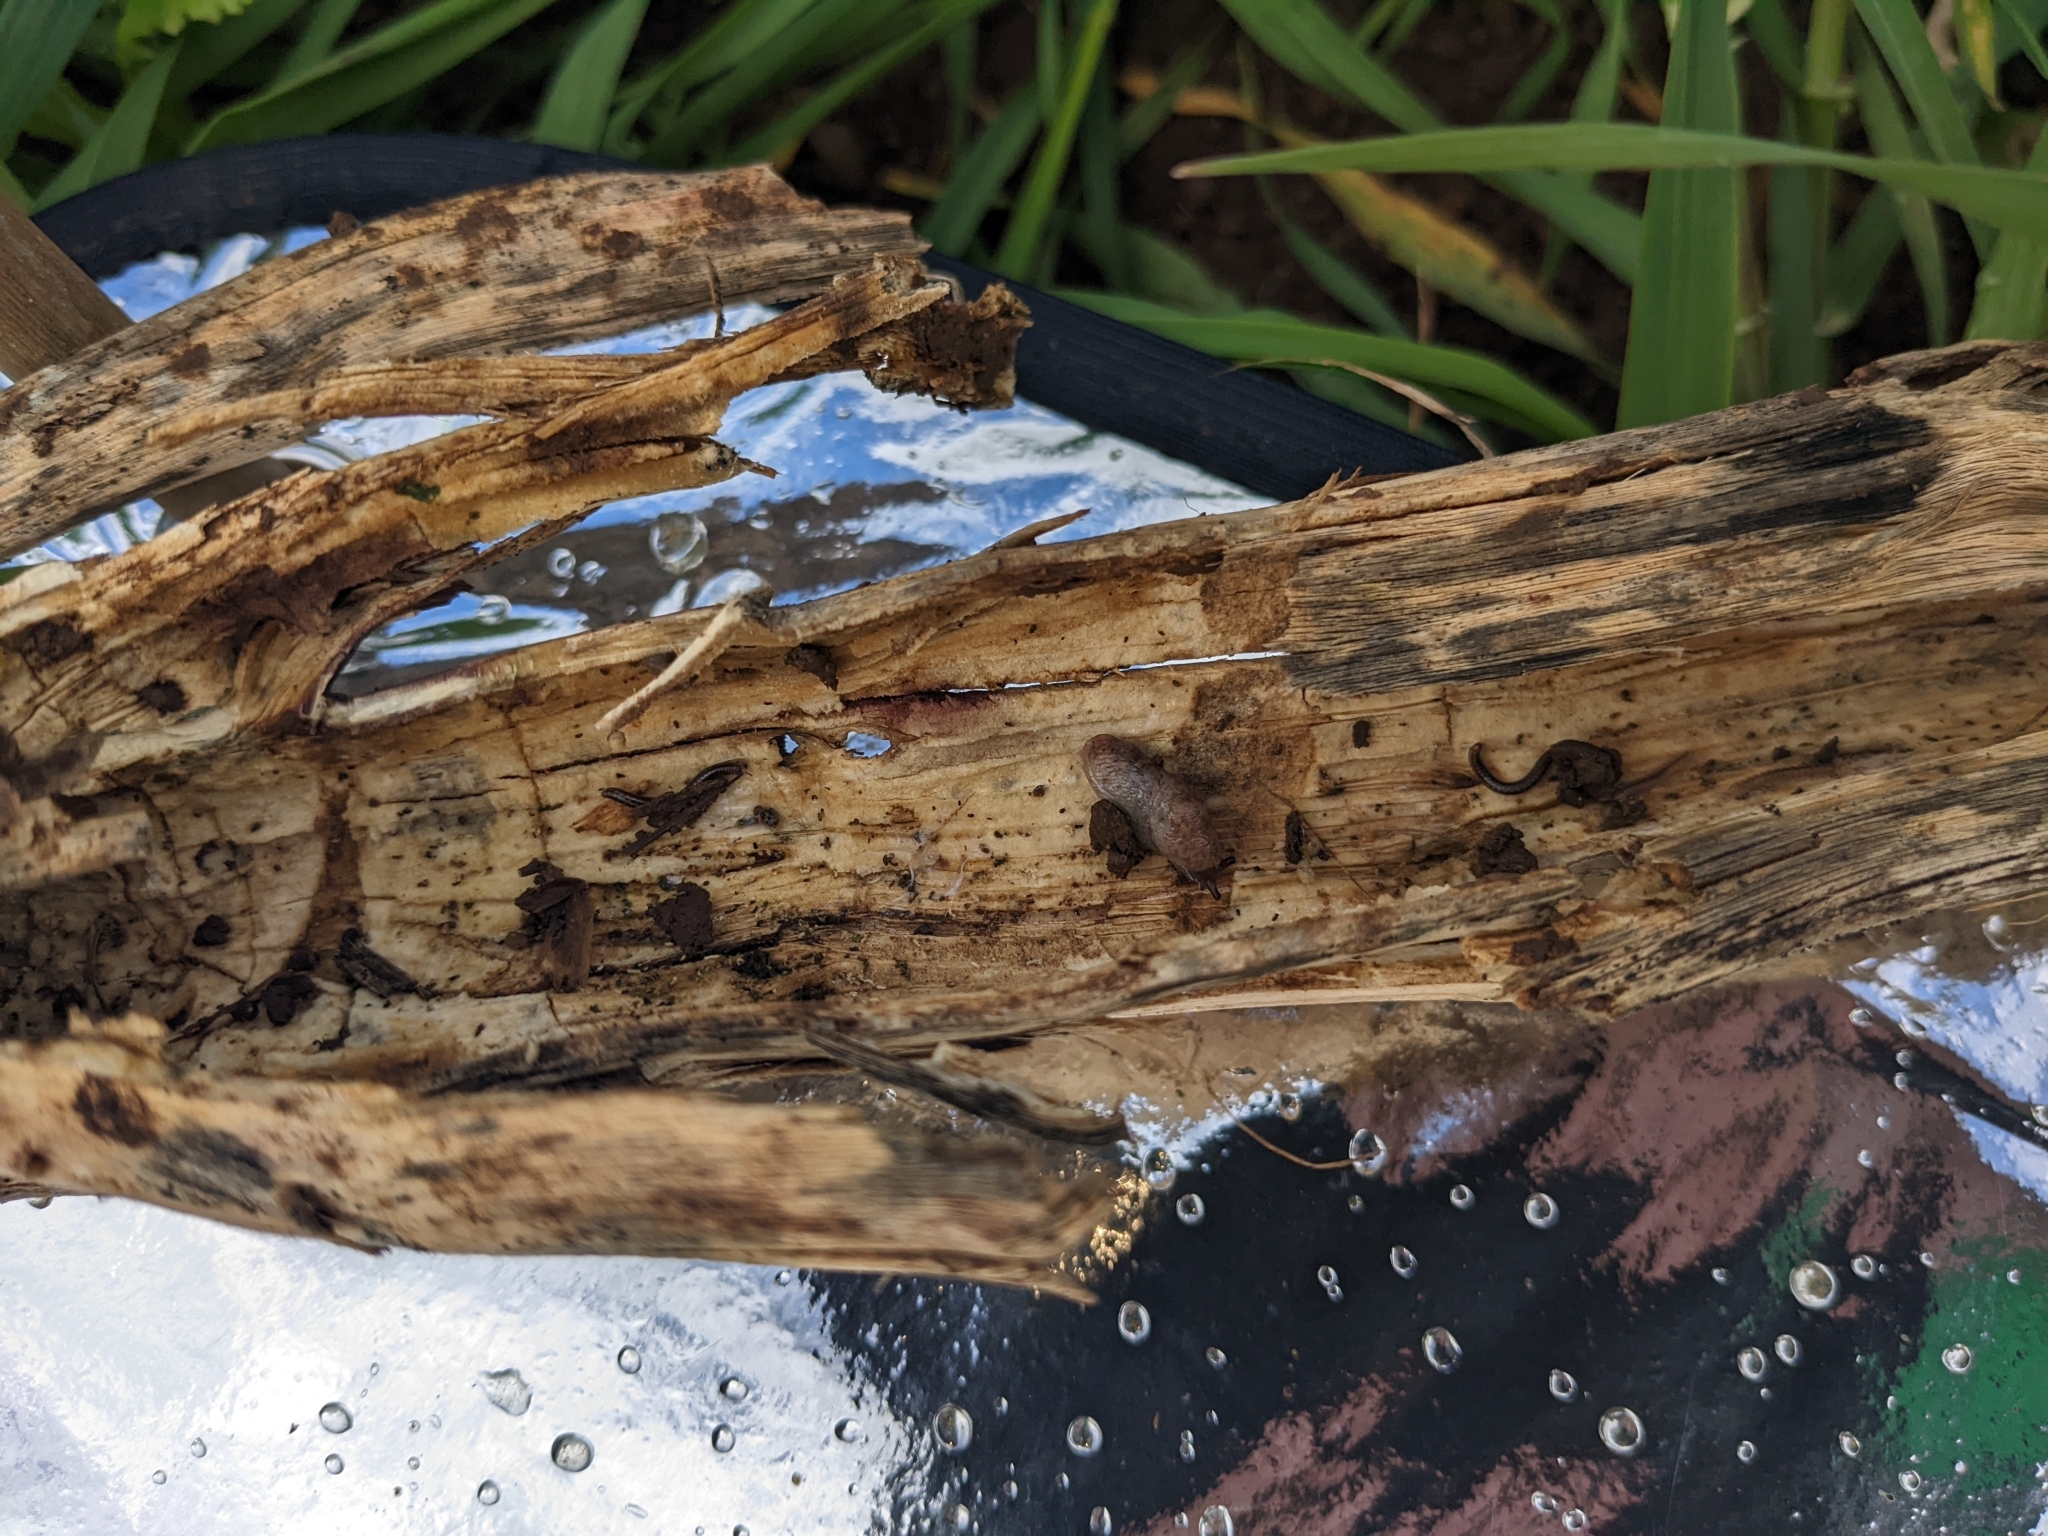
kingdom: Animalia
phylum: Mollusca
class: Gastropoda
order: Stylommatophora
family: Agriolimacidae
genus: Deroceras
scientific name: Deroceras reticulatum
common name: Gray field slug
